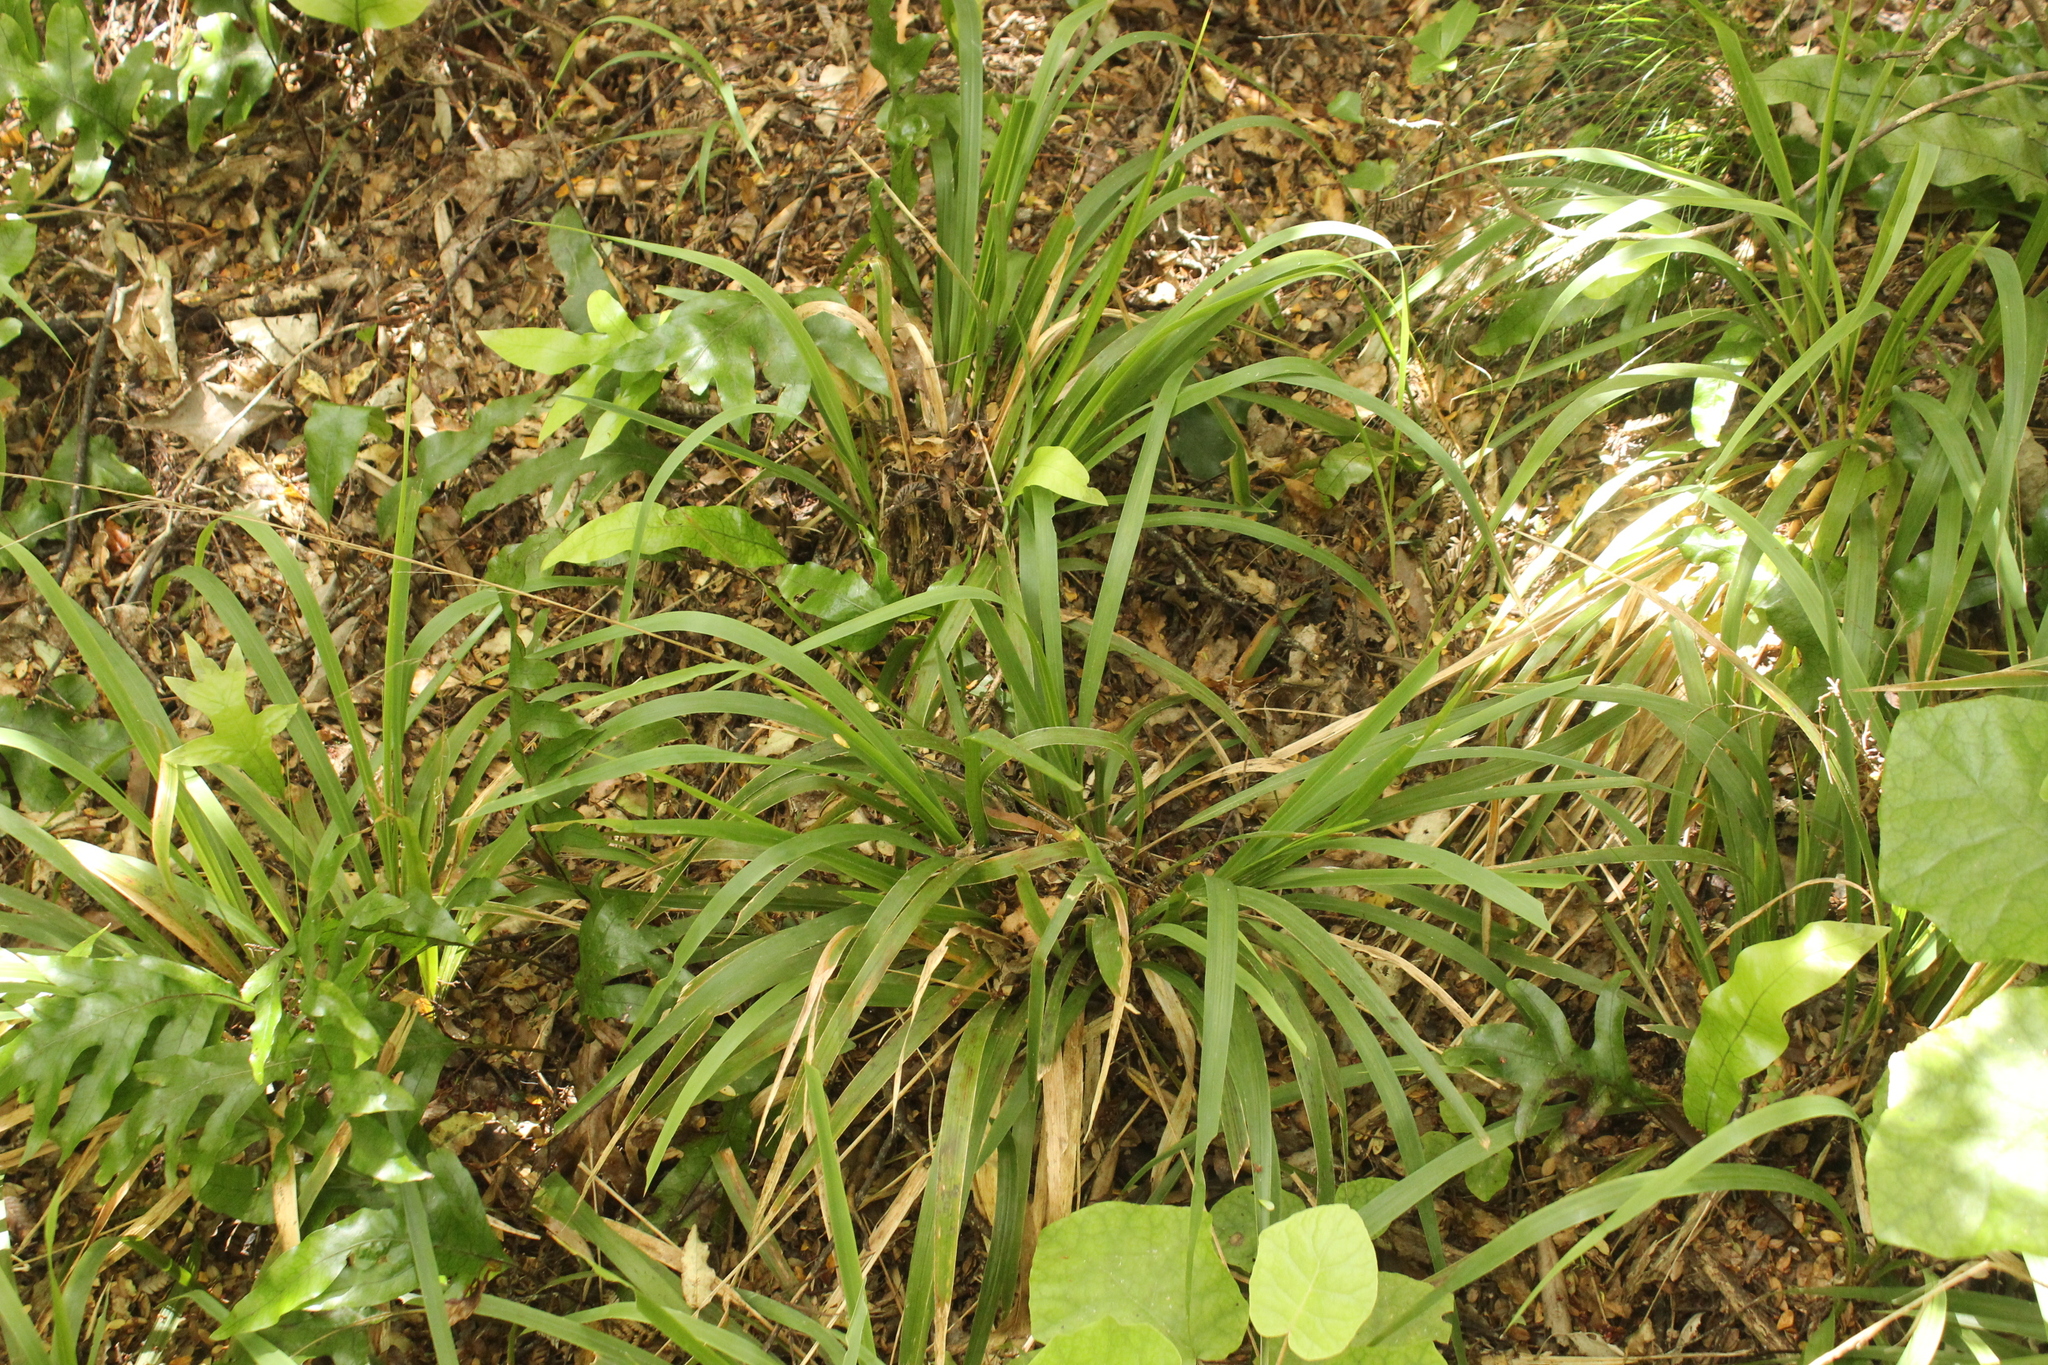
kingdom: Plantae
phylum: Tracheophyta
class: Liliopsida
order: Poales
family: Poaceae
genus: Ehrharta
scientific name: Ehrharta diplax
